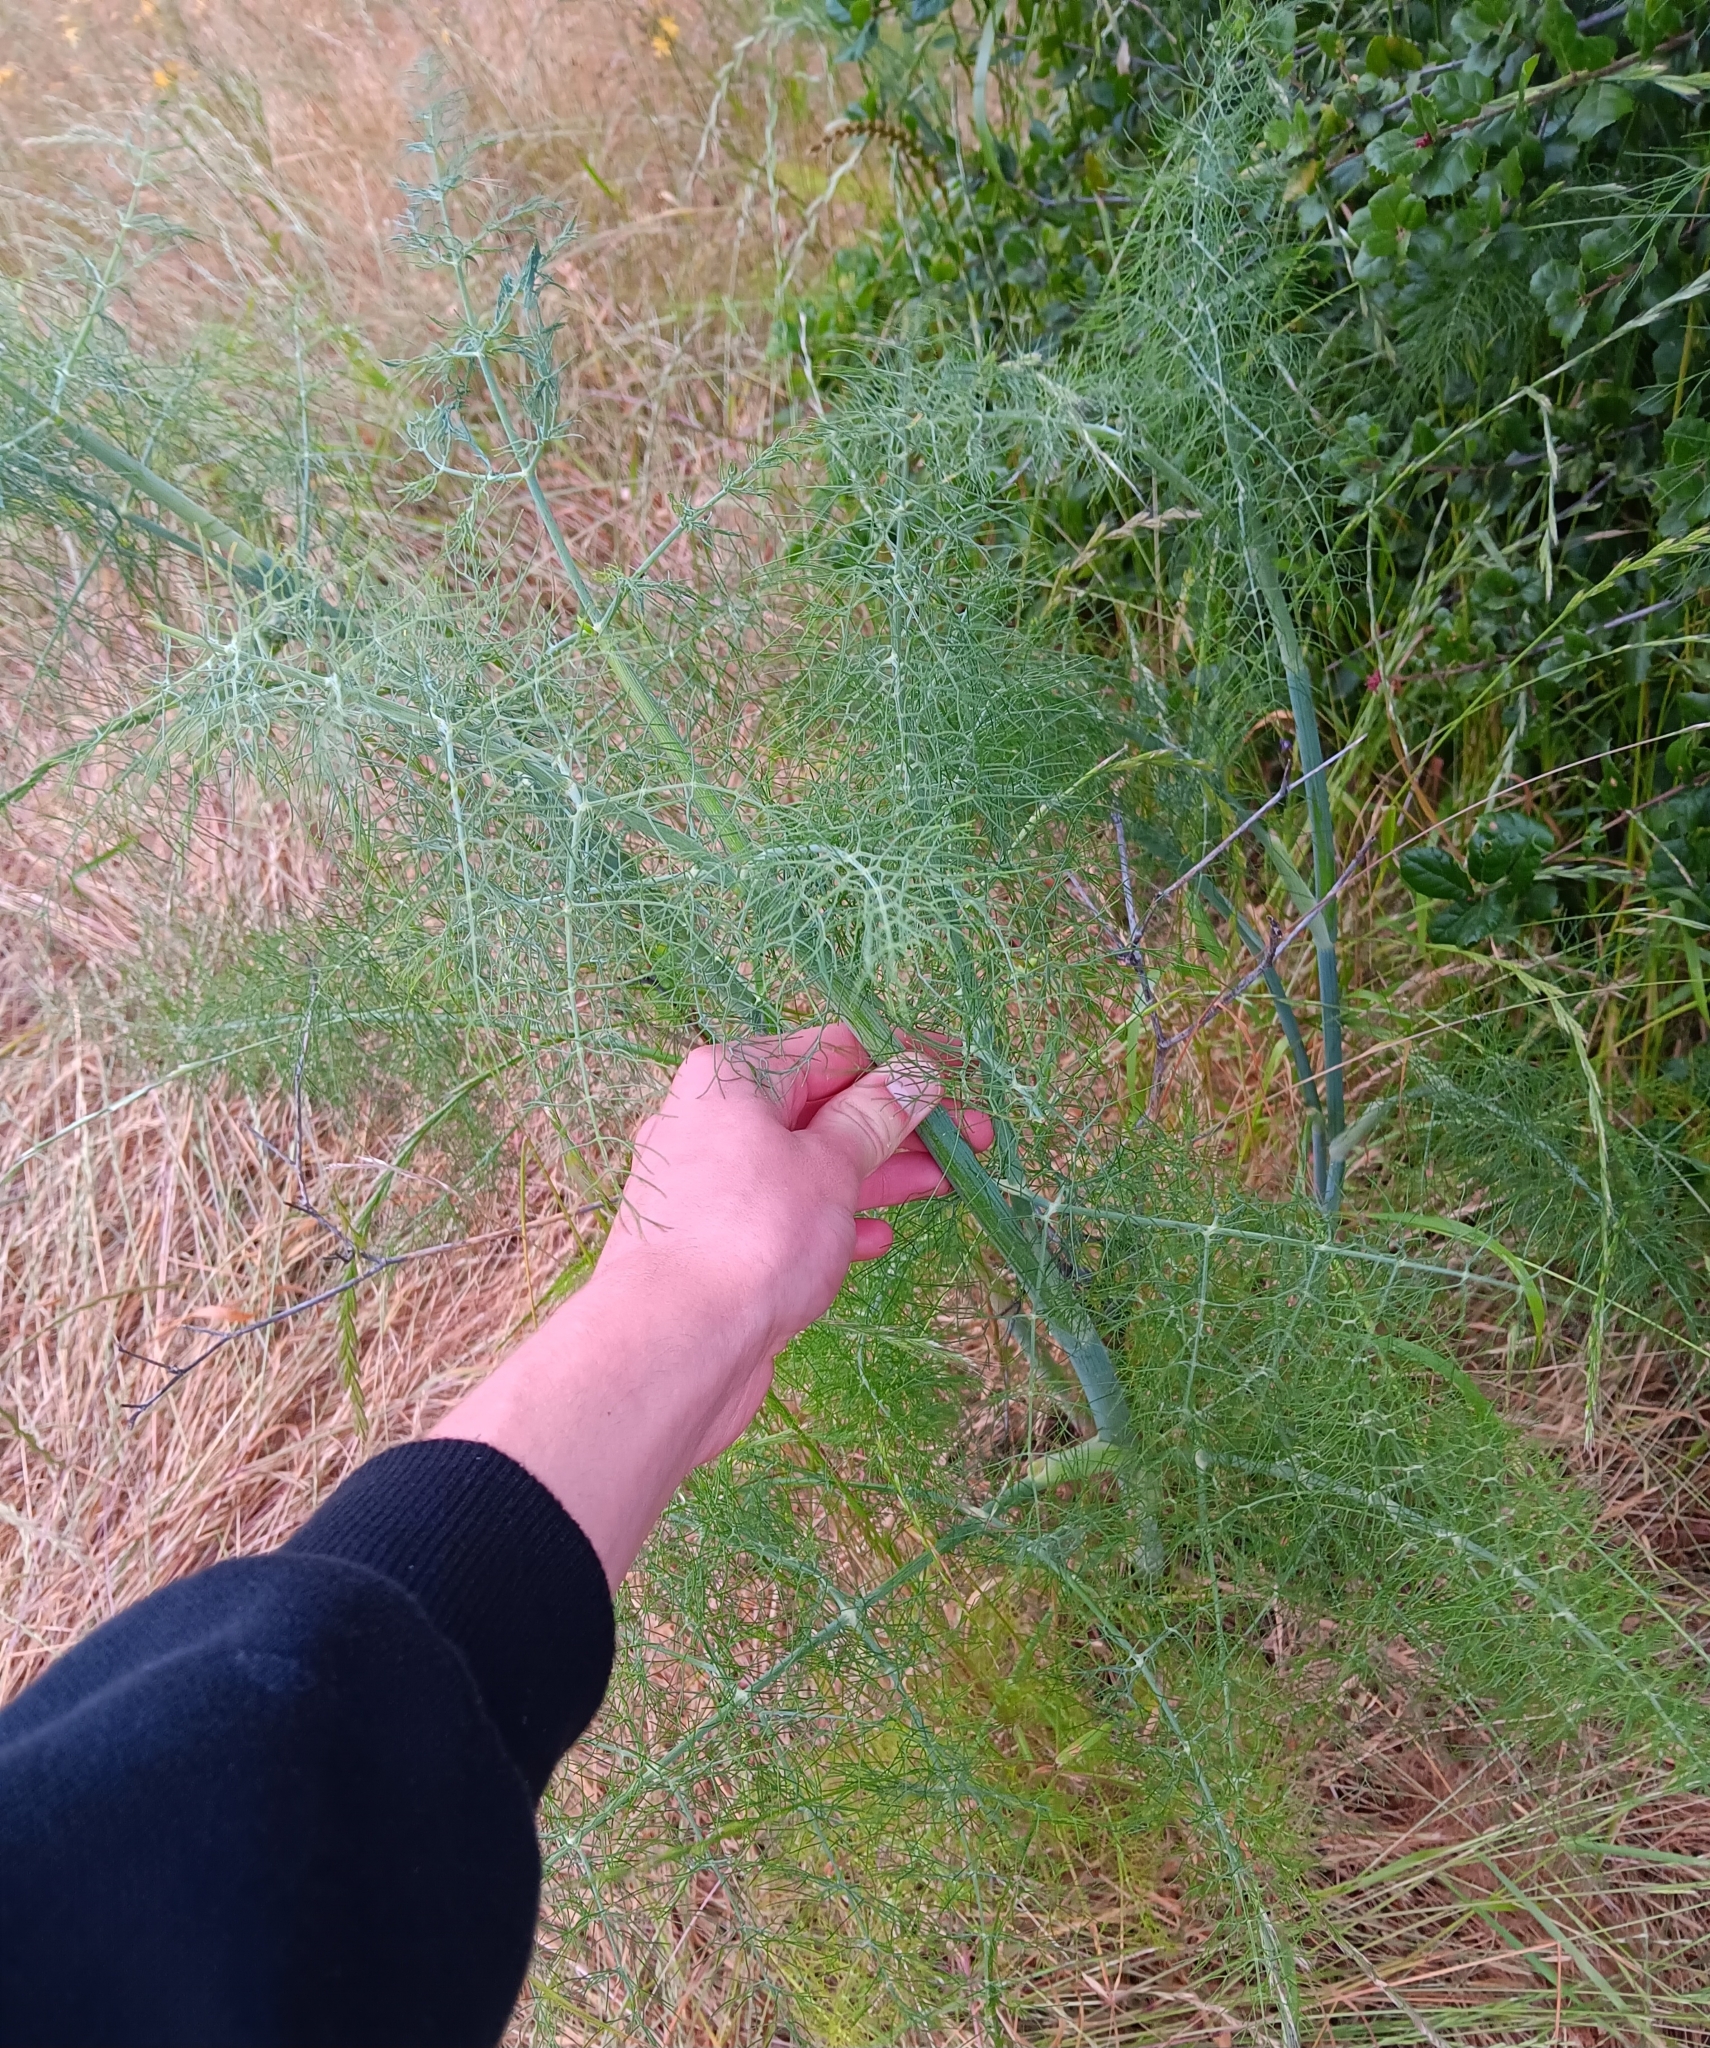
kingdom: Plantae
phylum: Tracheophyta
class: Magnoliopsida
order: Apiales
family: Apiaceae
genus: Foeniculum
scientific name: Foeniculum vulgare
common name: Fennel
